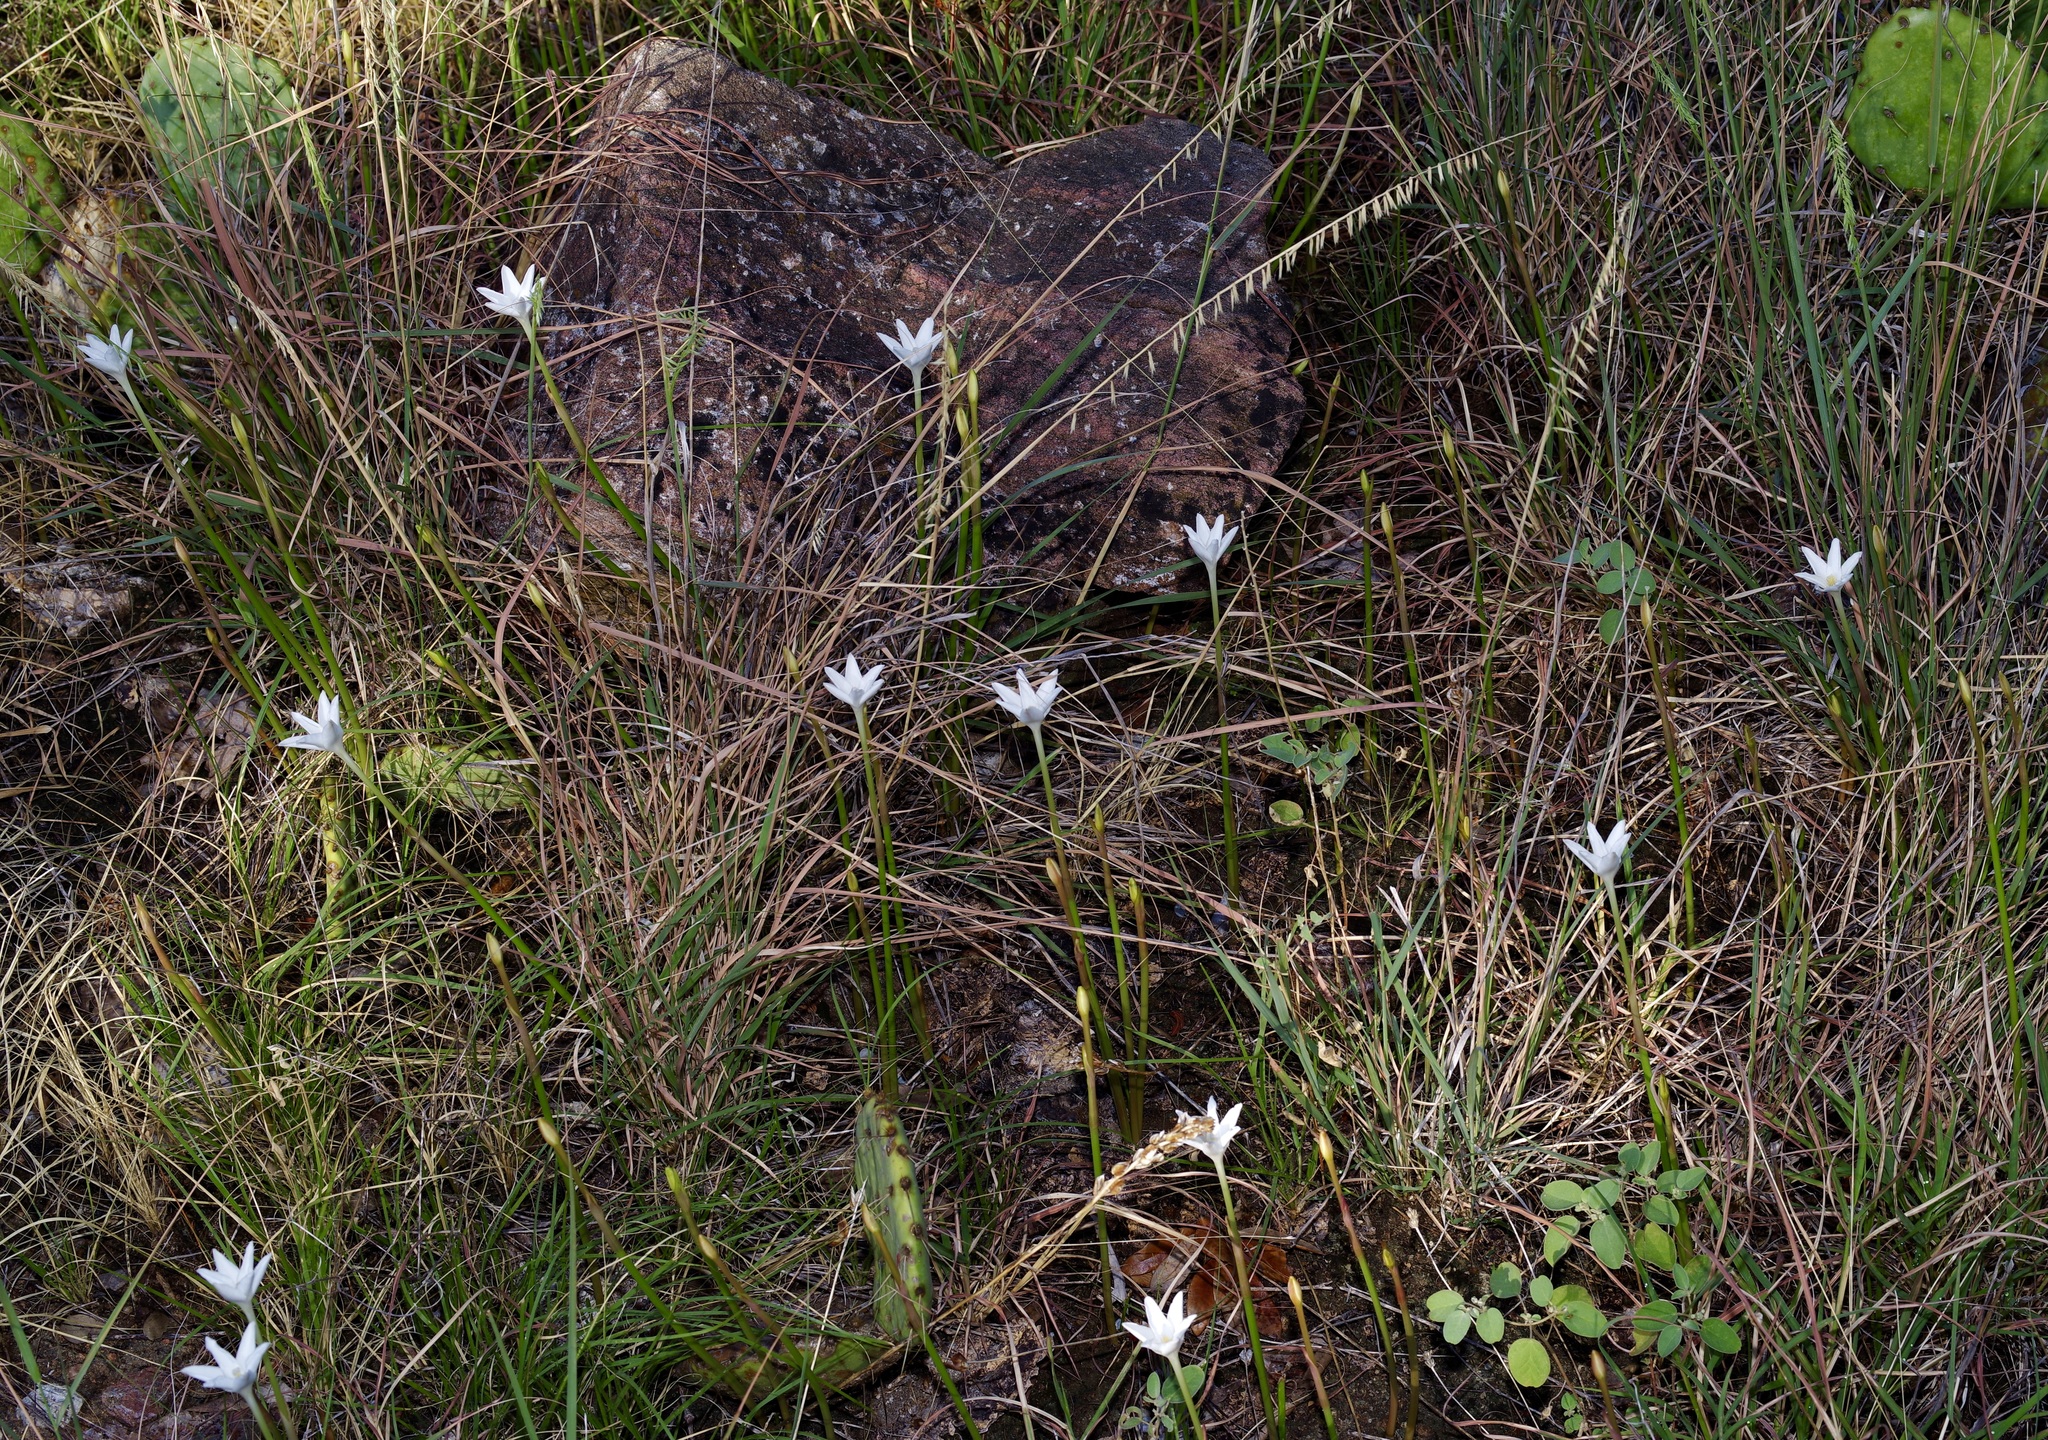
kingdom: Plantae
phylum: Tracheophyta
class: Liliopsida
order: Asparagales
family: Amaryllidaceae
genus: Zephyranthes
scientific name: Zephyranthes chlorosolen
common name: Evening rain-lily
